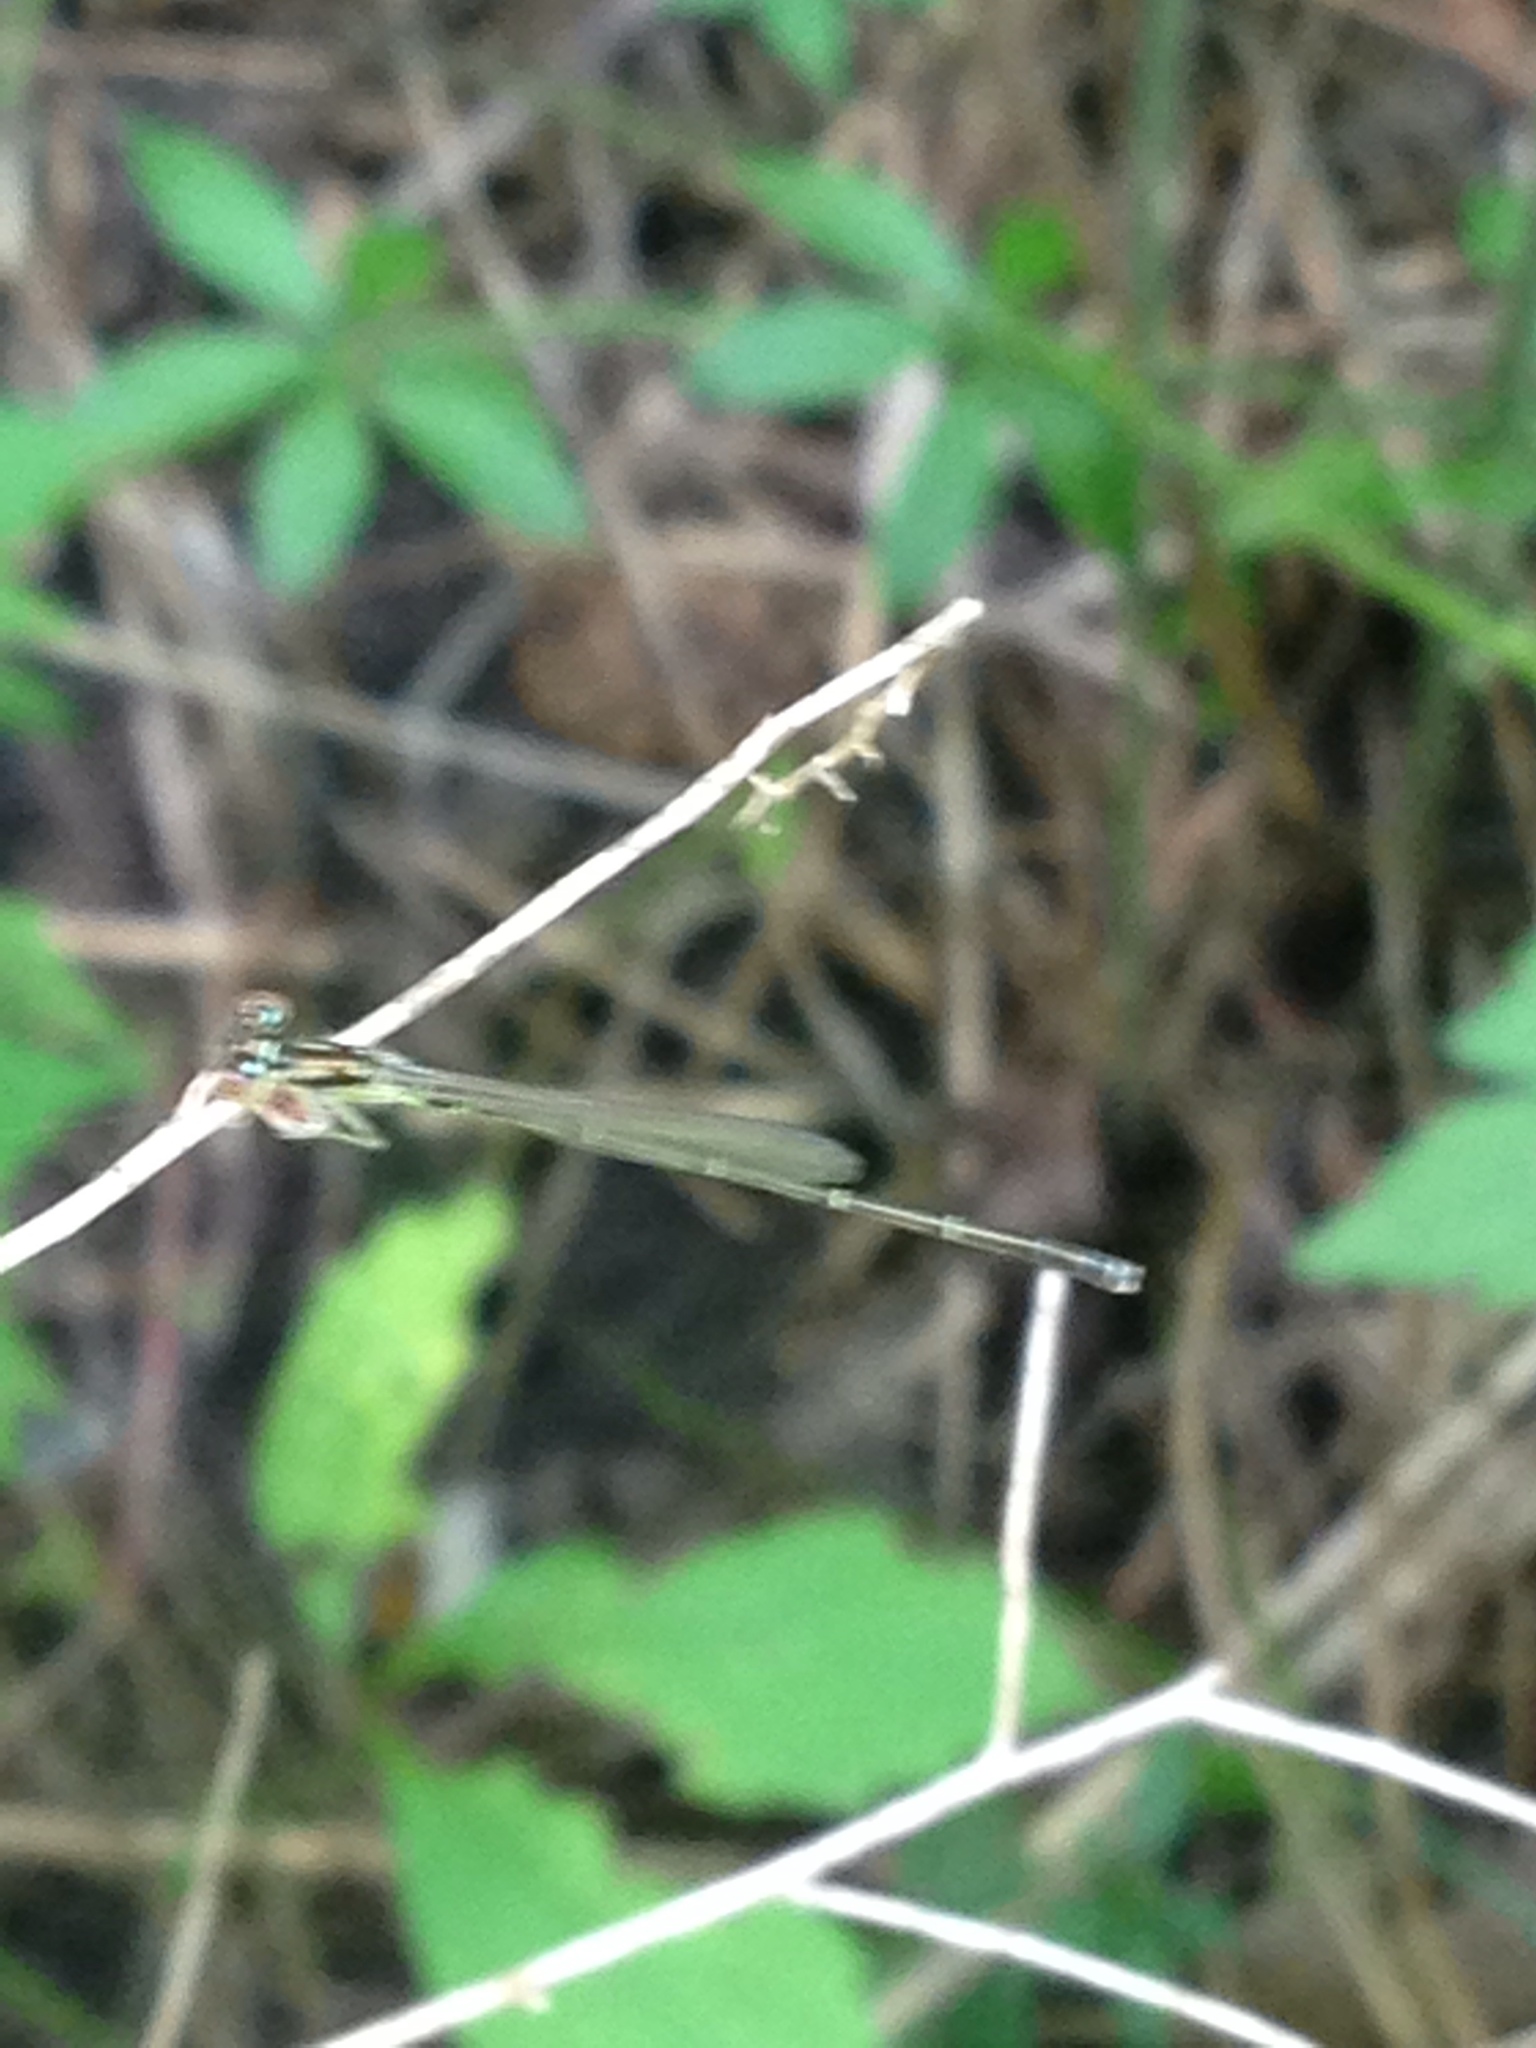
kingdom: Animalia
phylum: Arthropoda
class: Insecta
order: Odonata
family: Coenagrionidae
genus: Ischnura
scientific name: Ischnura posita
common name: Fragile forktail
